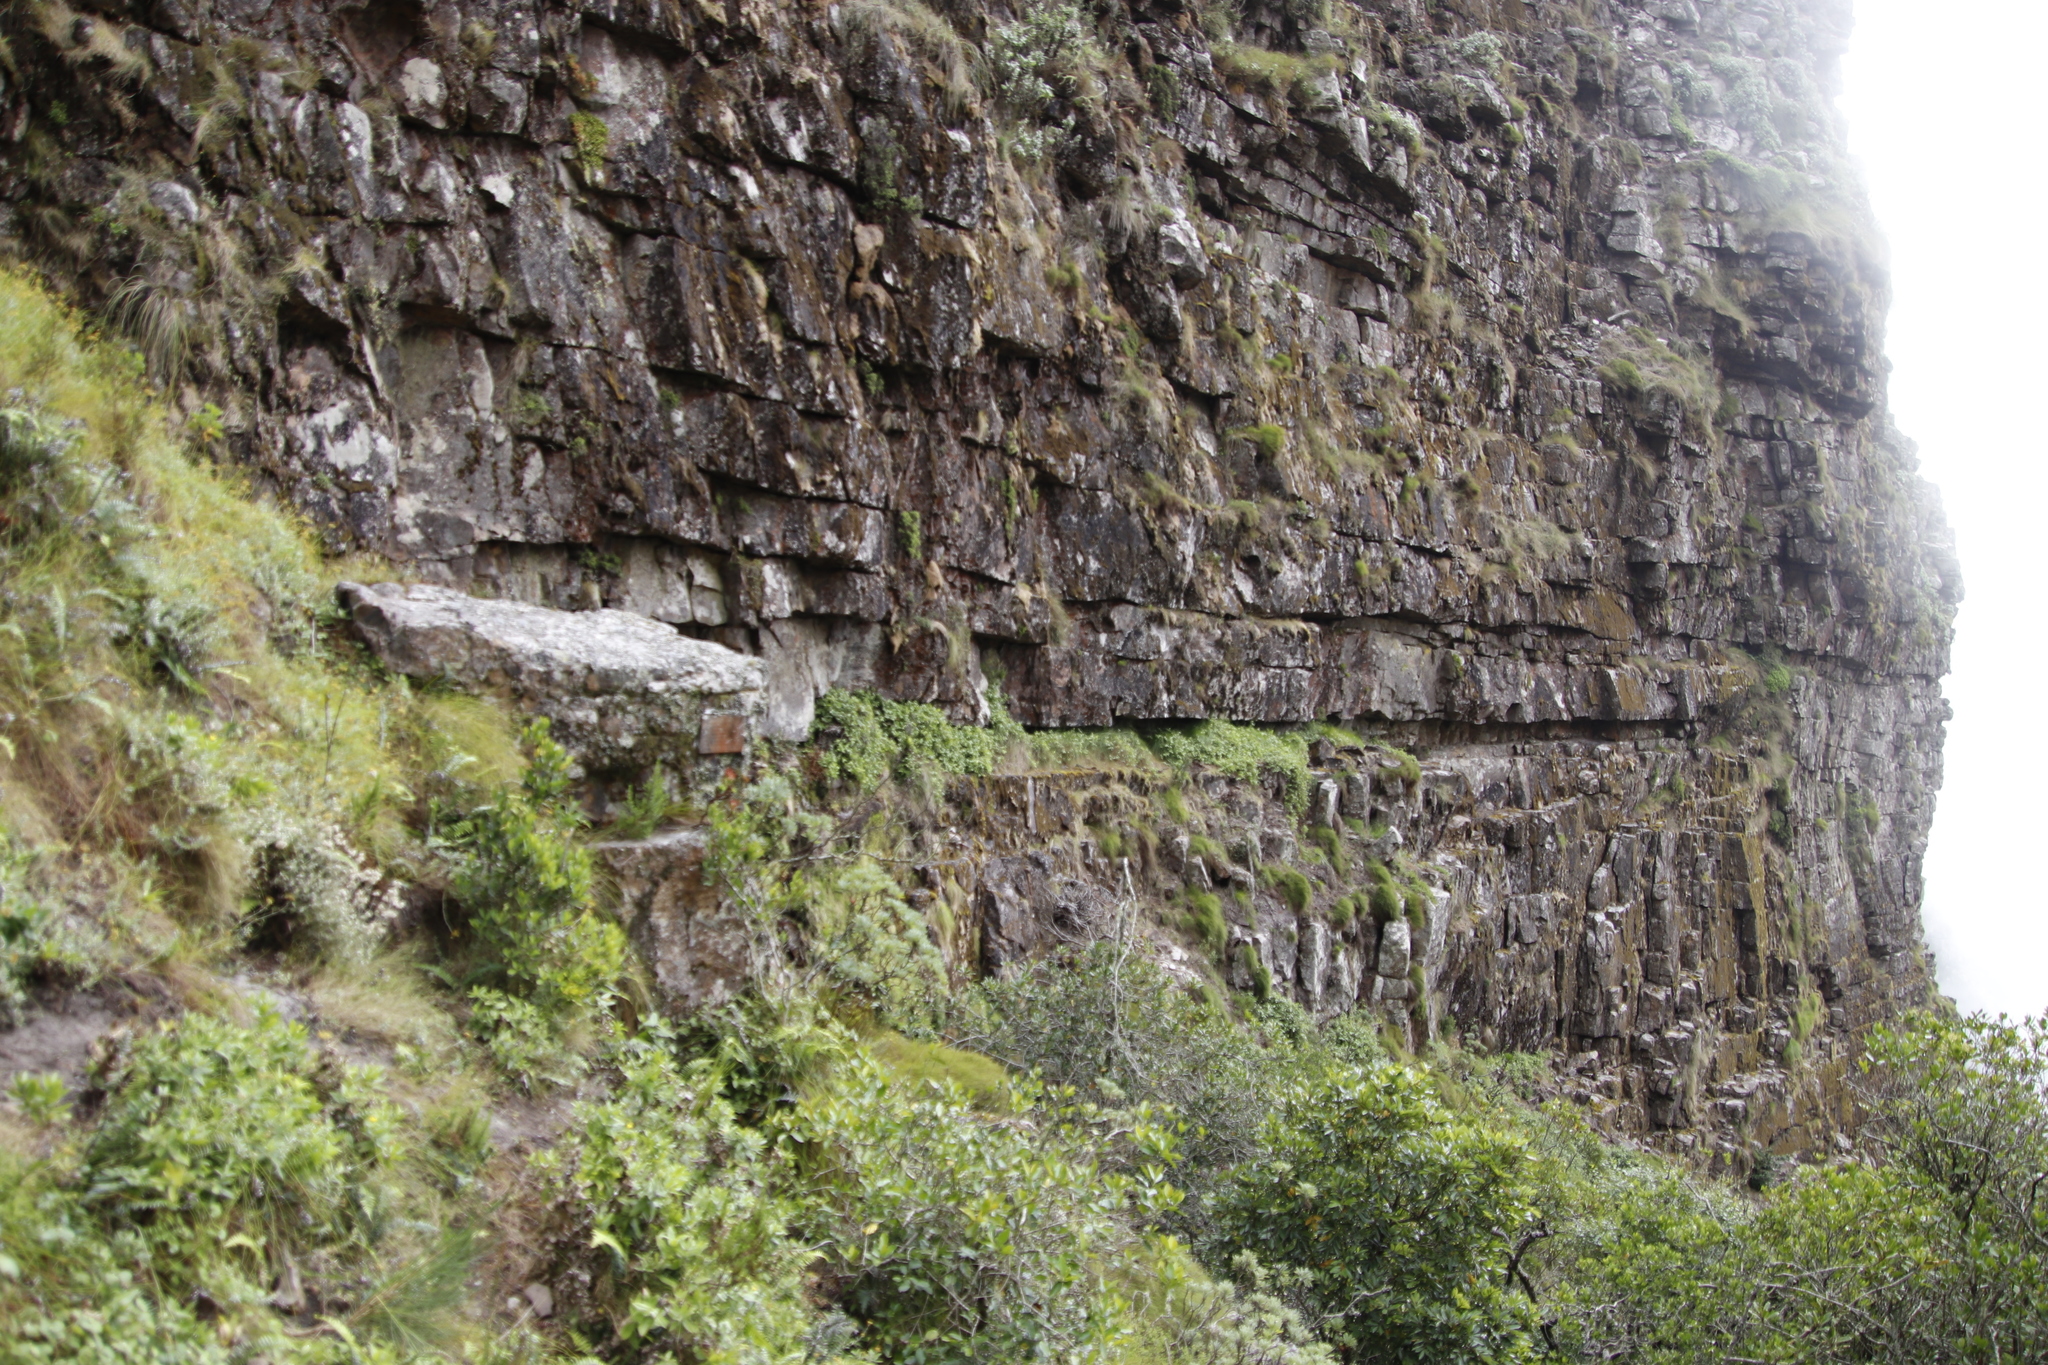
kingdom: Plantae
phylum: Tracheophyta
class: Magnoliopsida
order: Rosales
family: Rosaceae
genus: Cliffortia
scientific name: Cliffortia odorata
